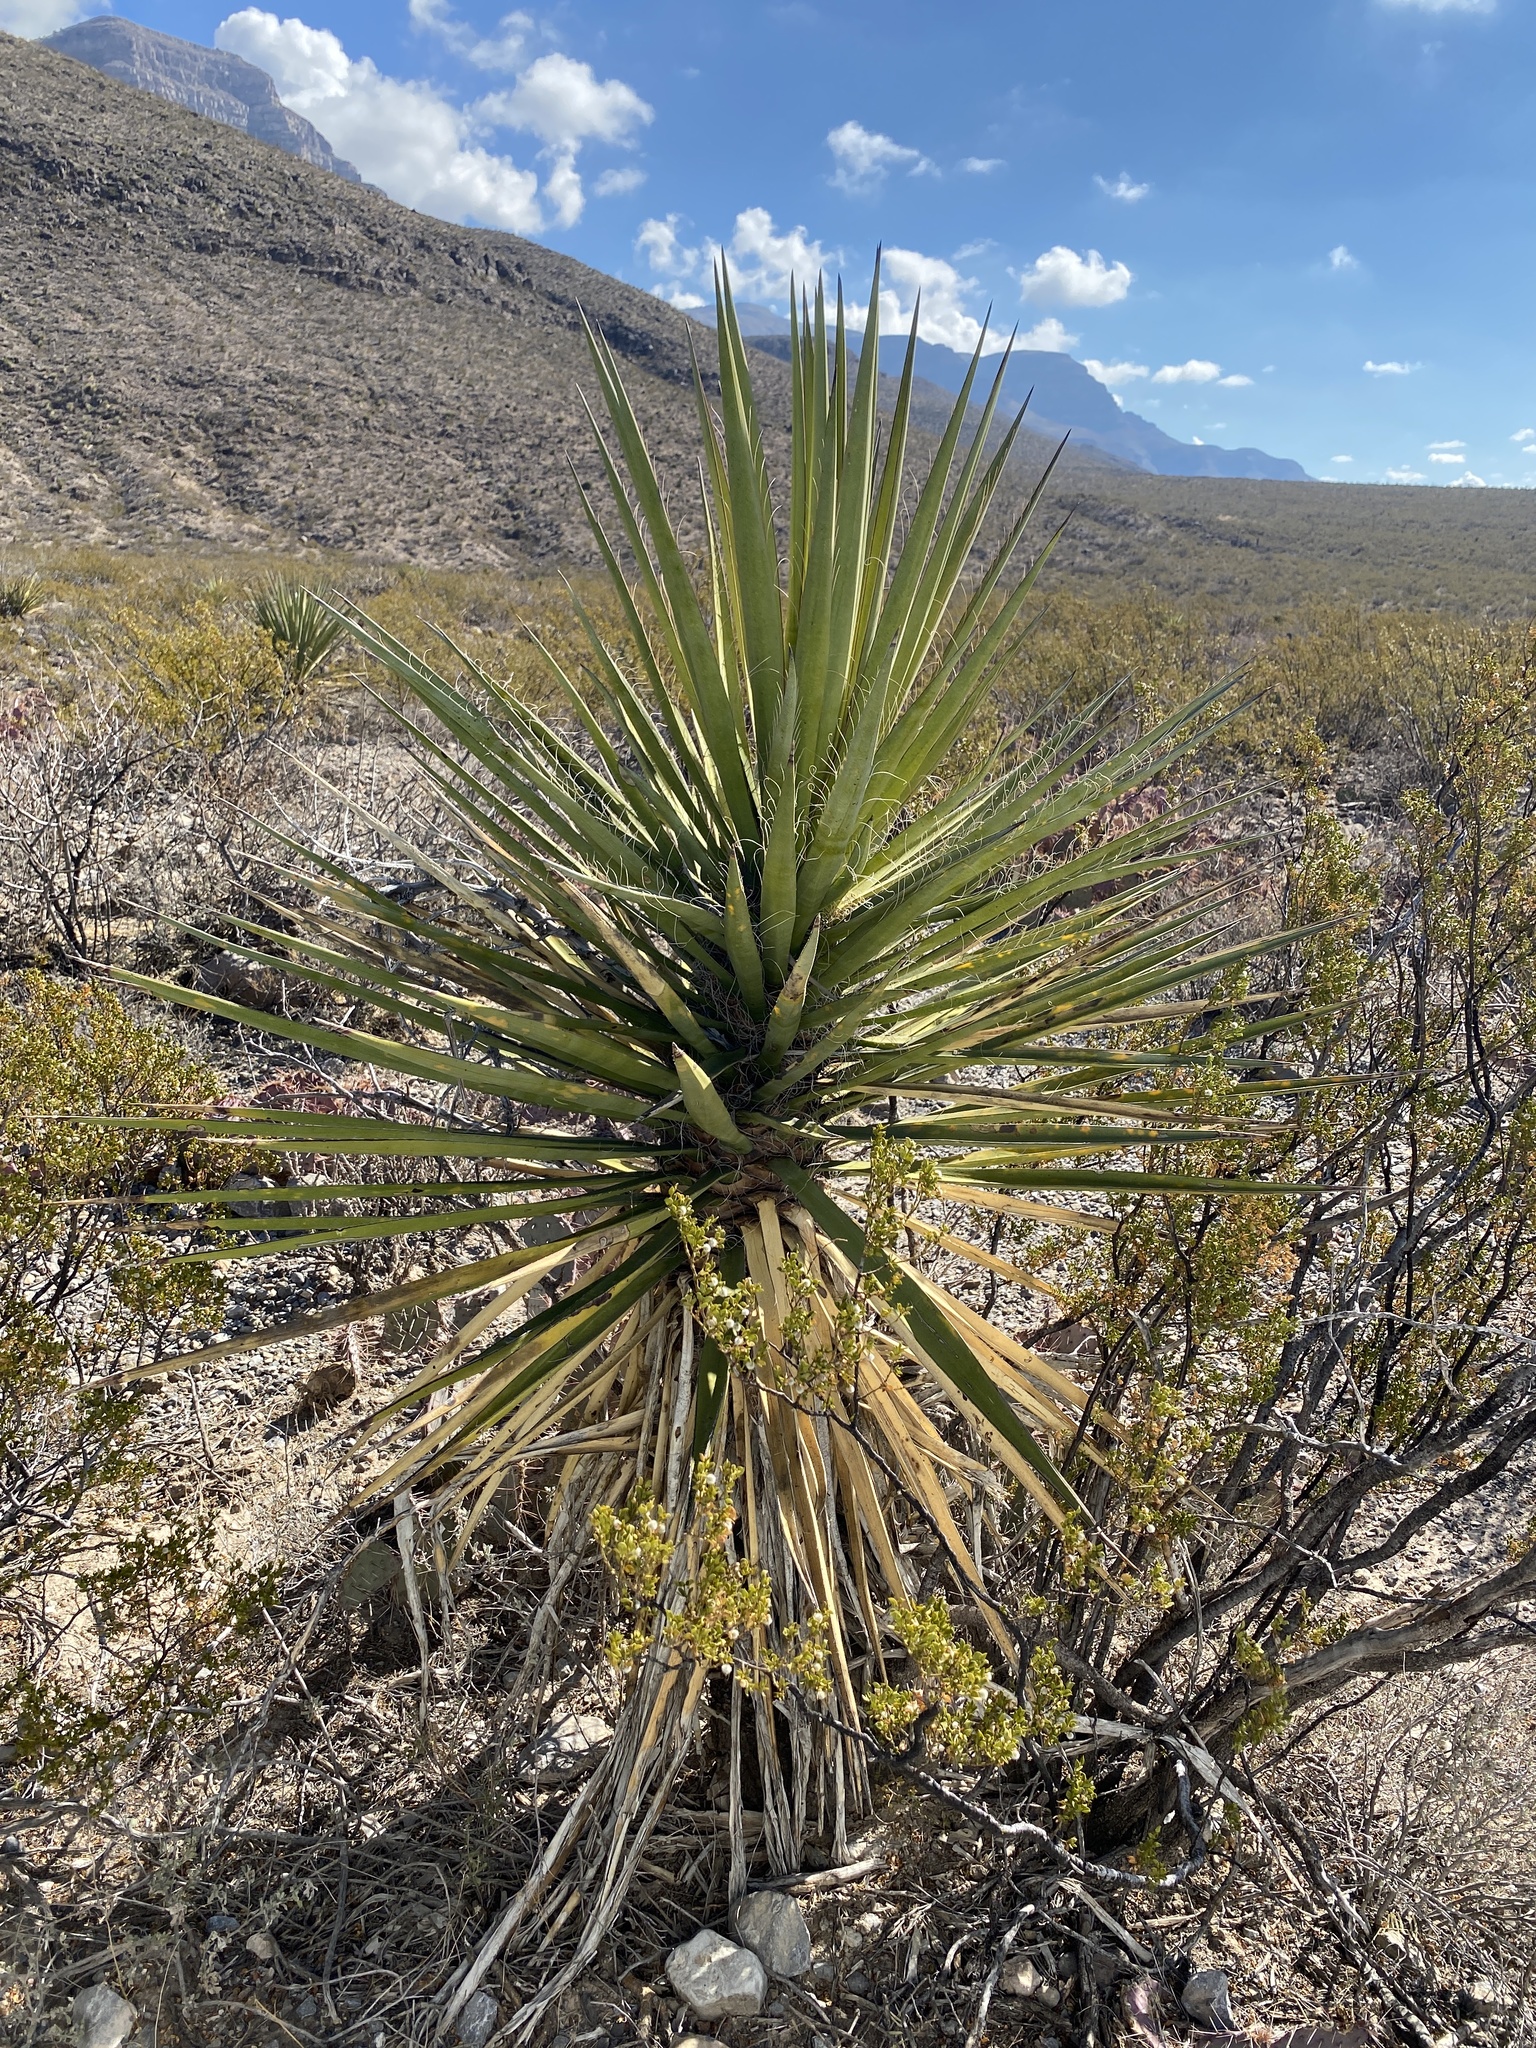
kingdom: Plantae
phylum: Tracheophyta
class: Liliopsida
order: Asparagales
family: Asparagaceae
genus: Yucca
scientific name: Yucca treculiana
